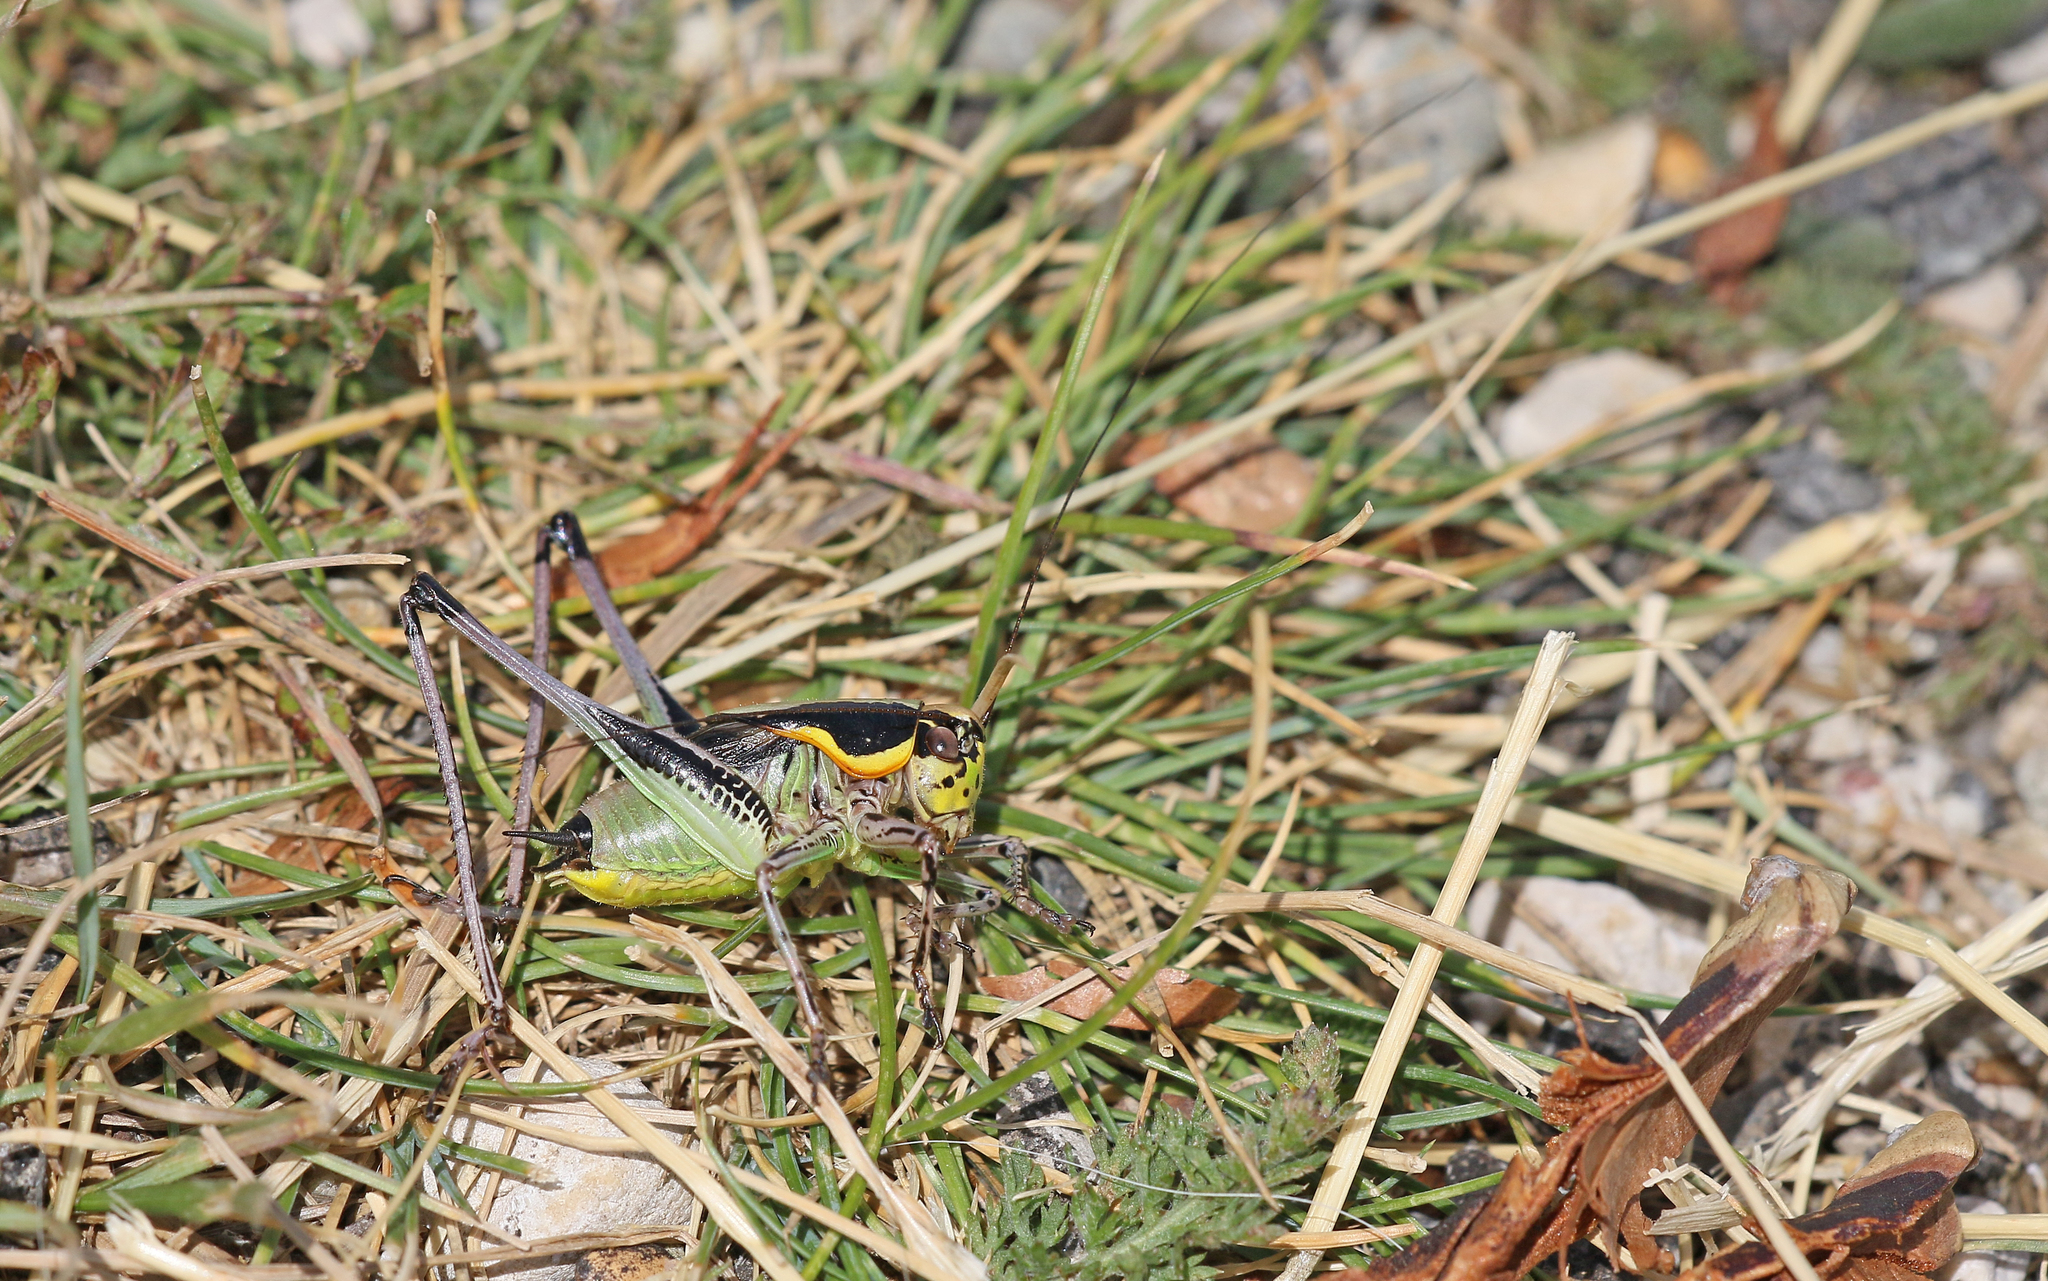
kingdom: Animalia
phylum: Arthropoda
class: Insecta
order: Orthoptera
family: Tettigoniidae
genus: Eupholidoptera
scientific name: Eupholidoptera chabrieri
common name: Chabrier's marbled bush-cricket
